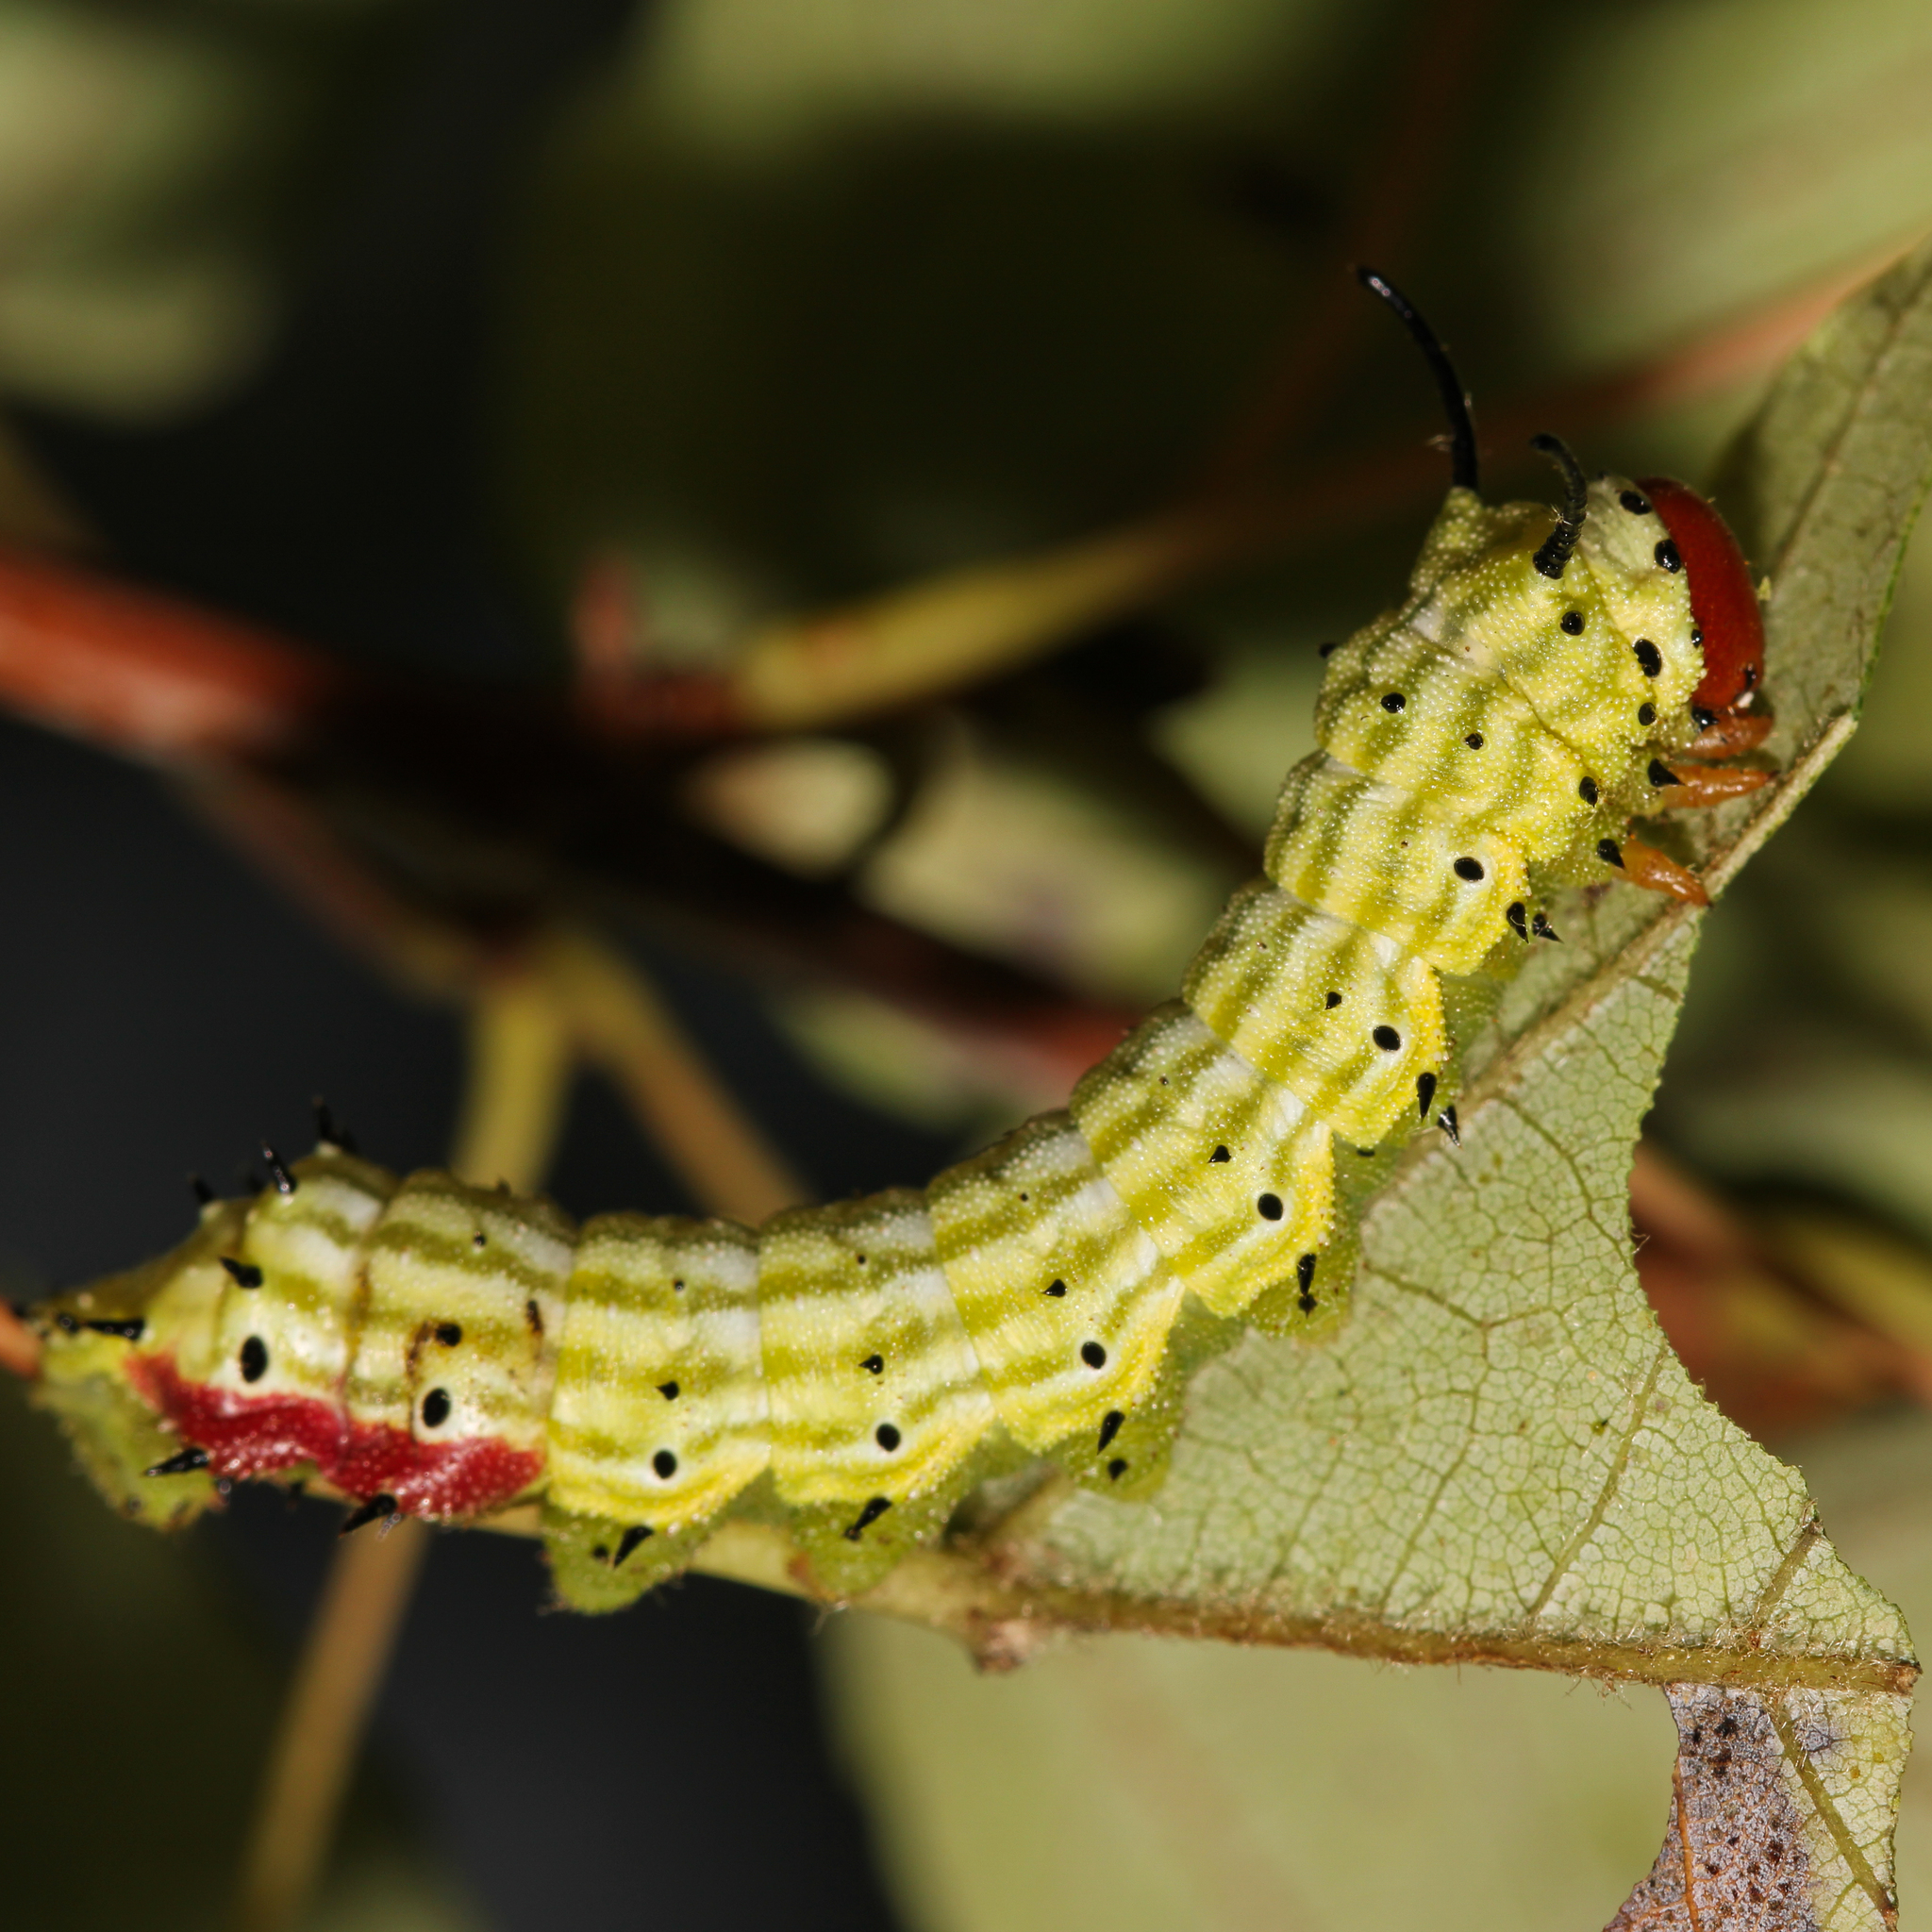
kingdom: Animalia
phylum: Arthropoda
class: Insecta
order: Lepidoptera
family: Saturniidae
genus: Dryocampa
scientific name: Dryocampa rubicunda
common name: Rosy maple moth
